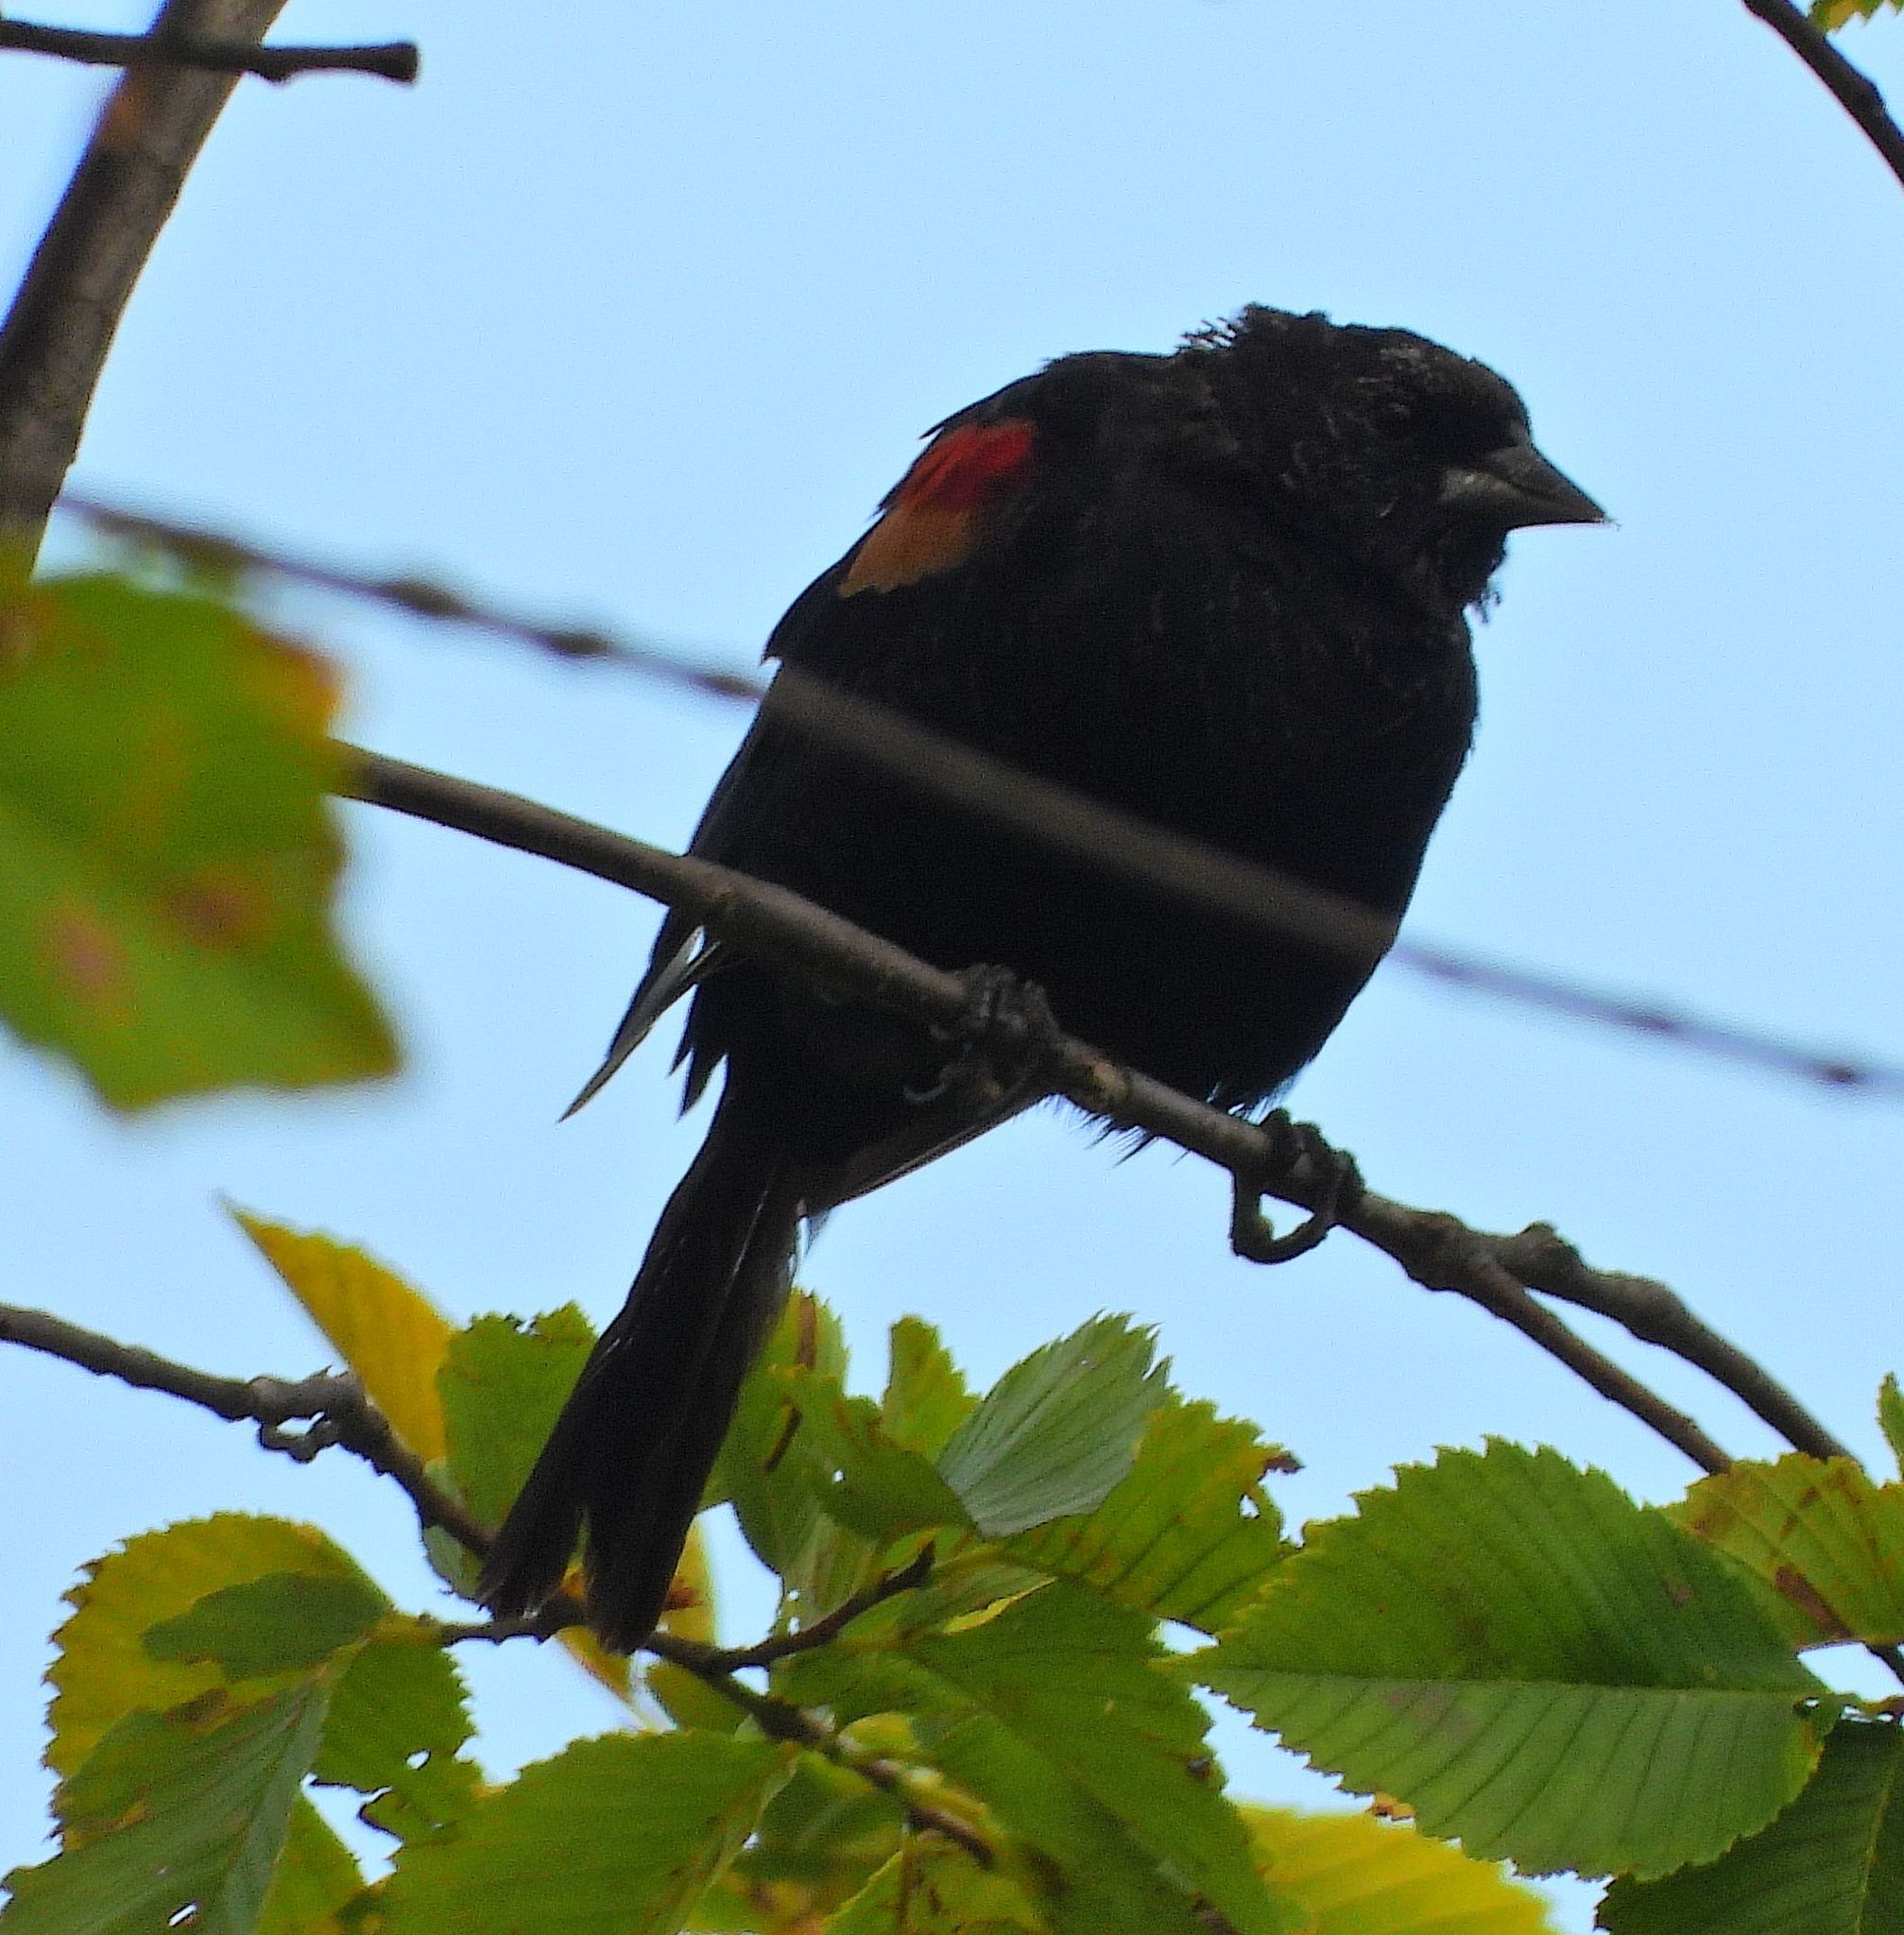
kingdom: Animalia
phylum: Chordata
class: Aves
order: Passeriformes
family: Icteridae
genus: Agelaius
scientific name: Agelaius phoeniceus
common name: Red-winged blackbird
